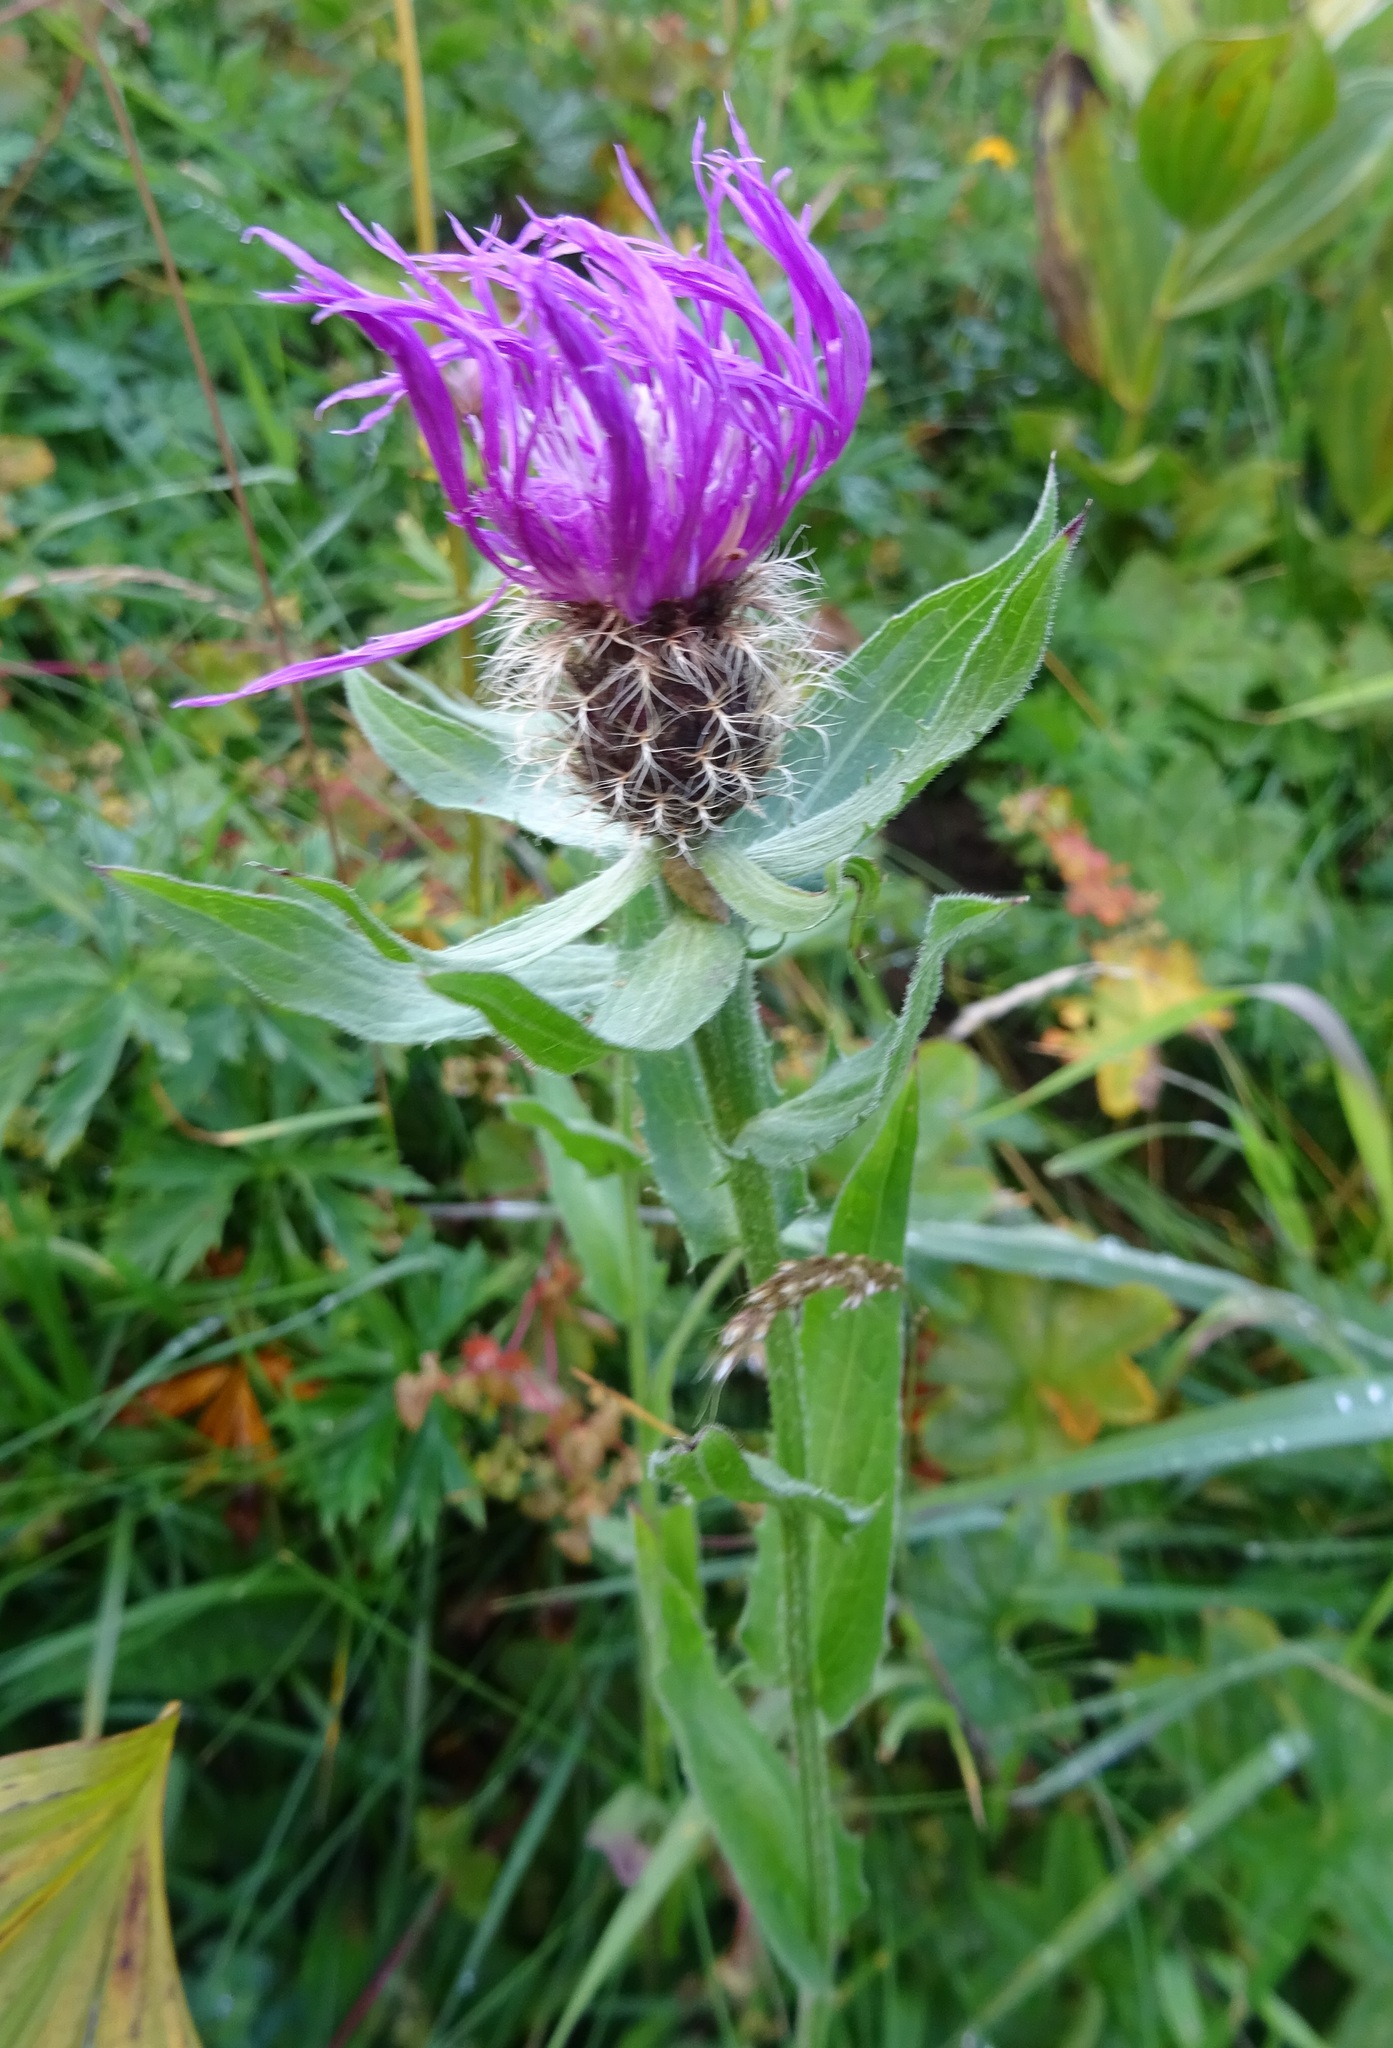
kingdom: Plantae
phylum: Tracheophyta
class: Magnoliopsida
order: Asterales
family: Asteraceae
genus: Centaurea
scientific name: Centaurea nervosa
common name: Singleflower knapweed
